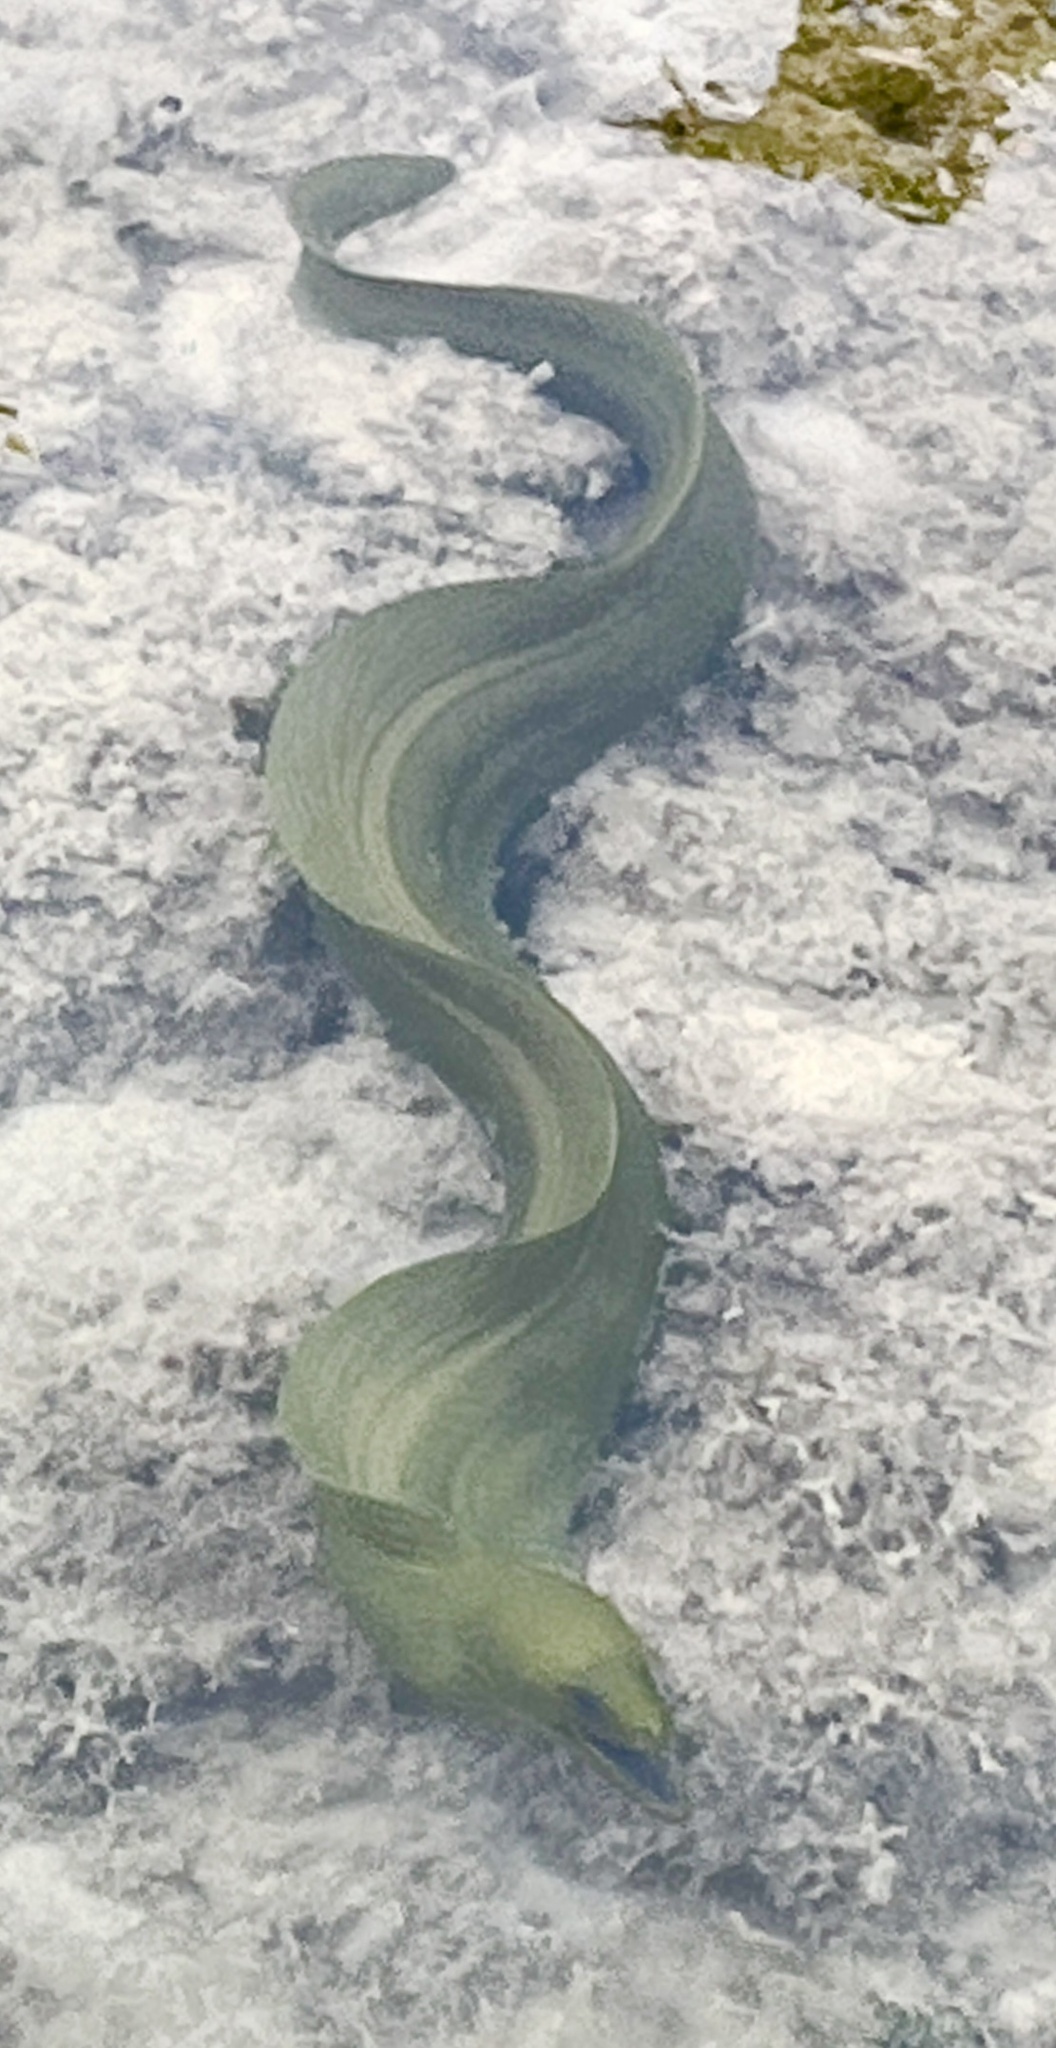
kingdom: Animalia
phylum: Chordata
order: Anguilliformes
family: Muraenidae
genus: Gymnothorax
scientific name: Gymnothorax funebris
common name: Green moray
